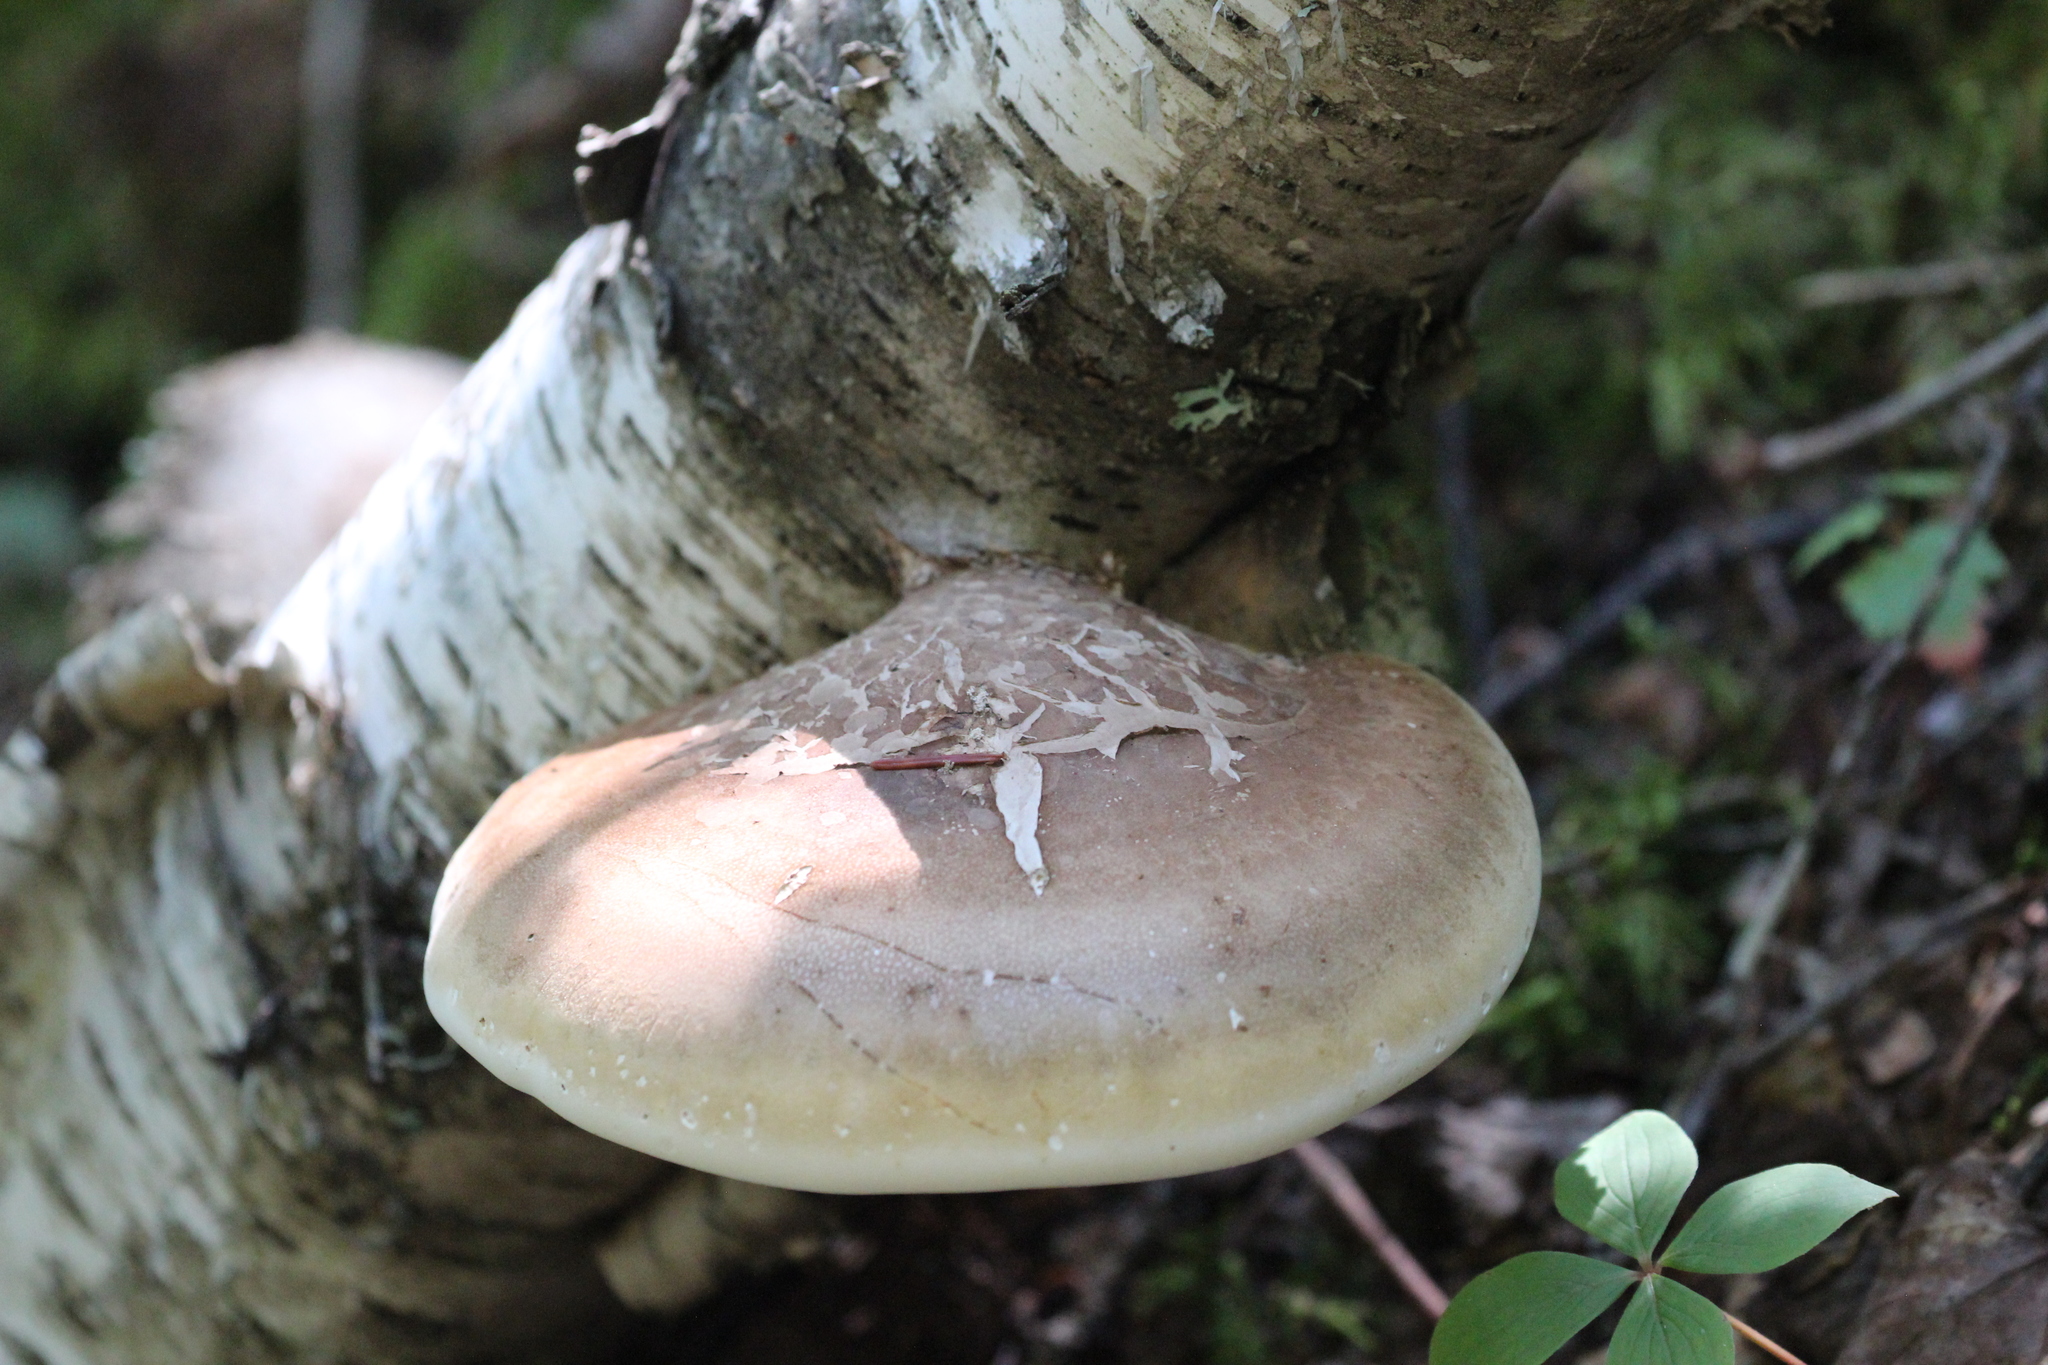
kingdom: Fungi
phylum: Basidiomycota
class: Agaricomycetes
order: Polyporales
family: Fomitopsidaceae
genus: Fomitopsis
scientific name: Fomitopsis betulina
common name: Birch polypore
